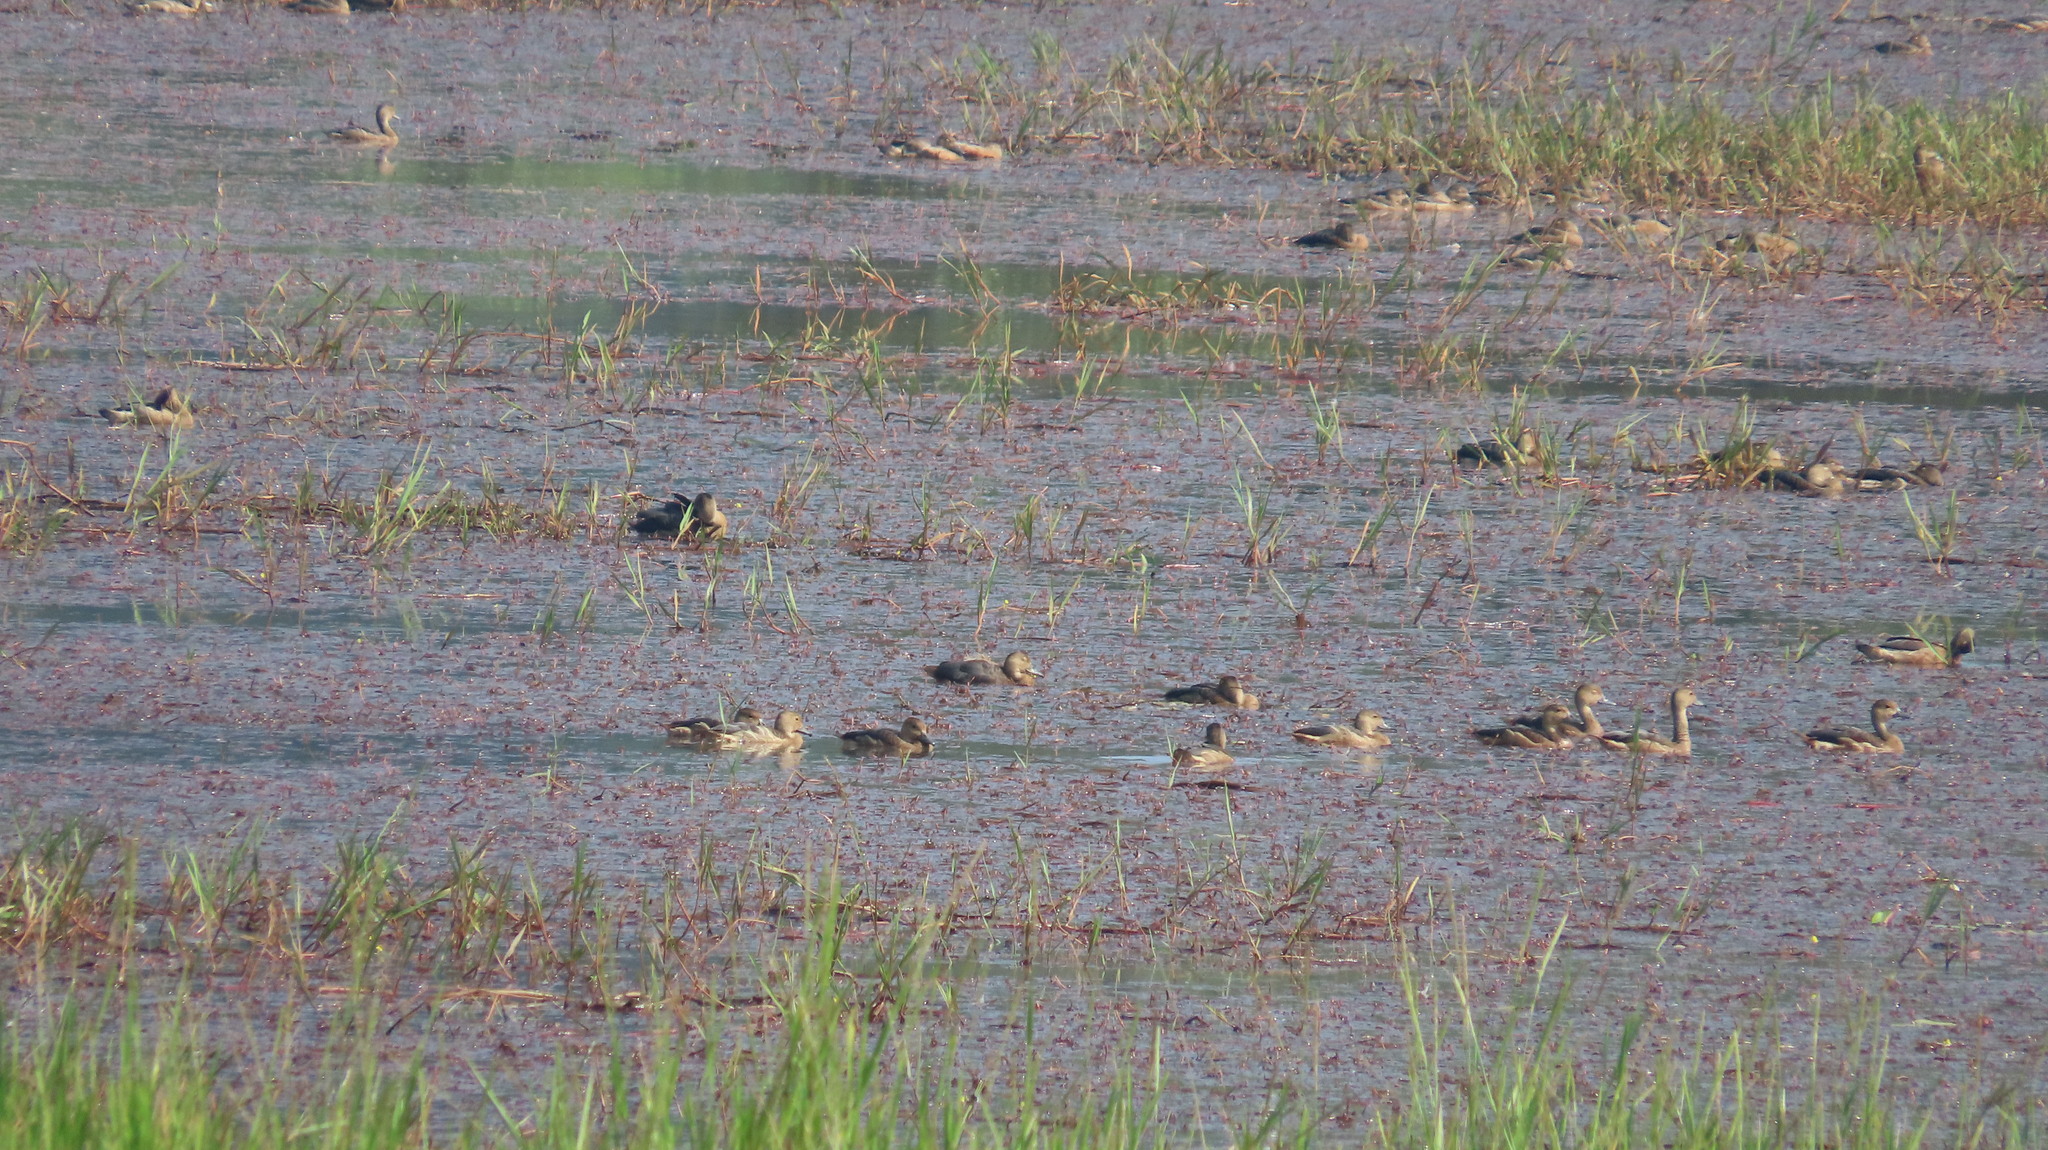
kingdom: Animalia
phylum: Chordata
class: Aves
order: Anseriformes
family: Anatidae
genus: Dendrocygna
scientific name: Dendrocygna javanica
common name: Lesser whistling-duck
